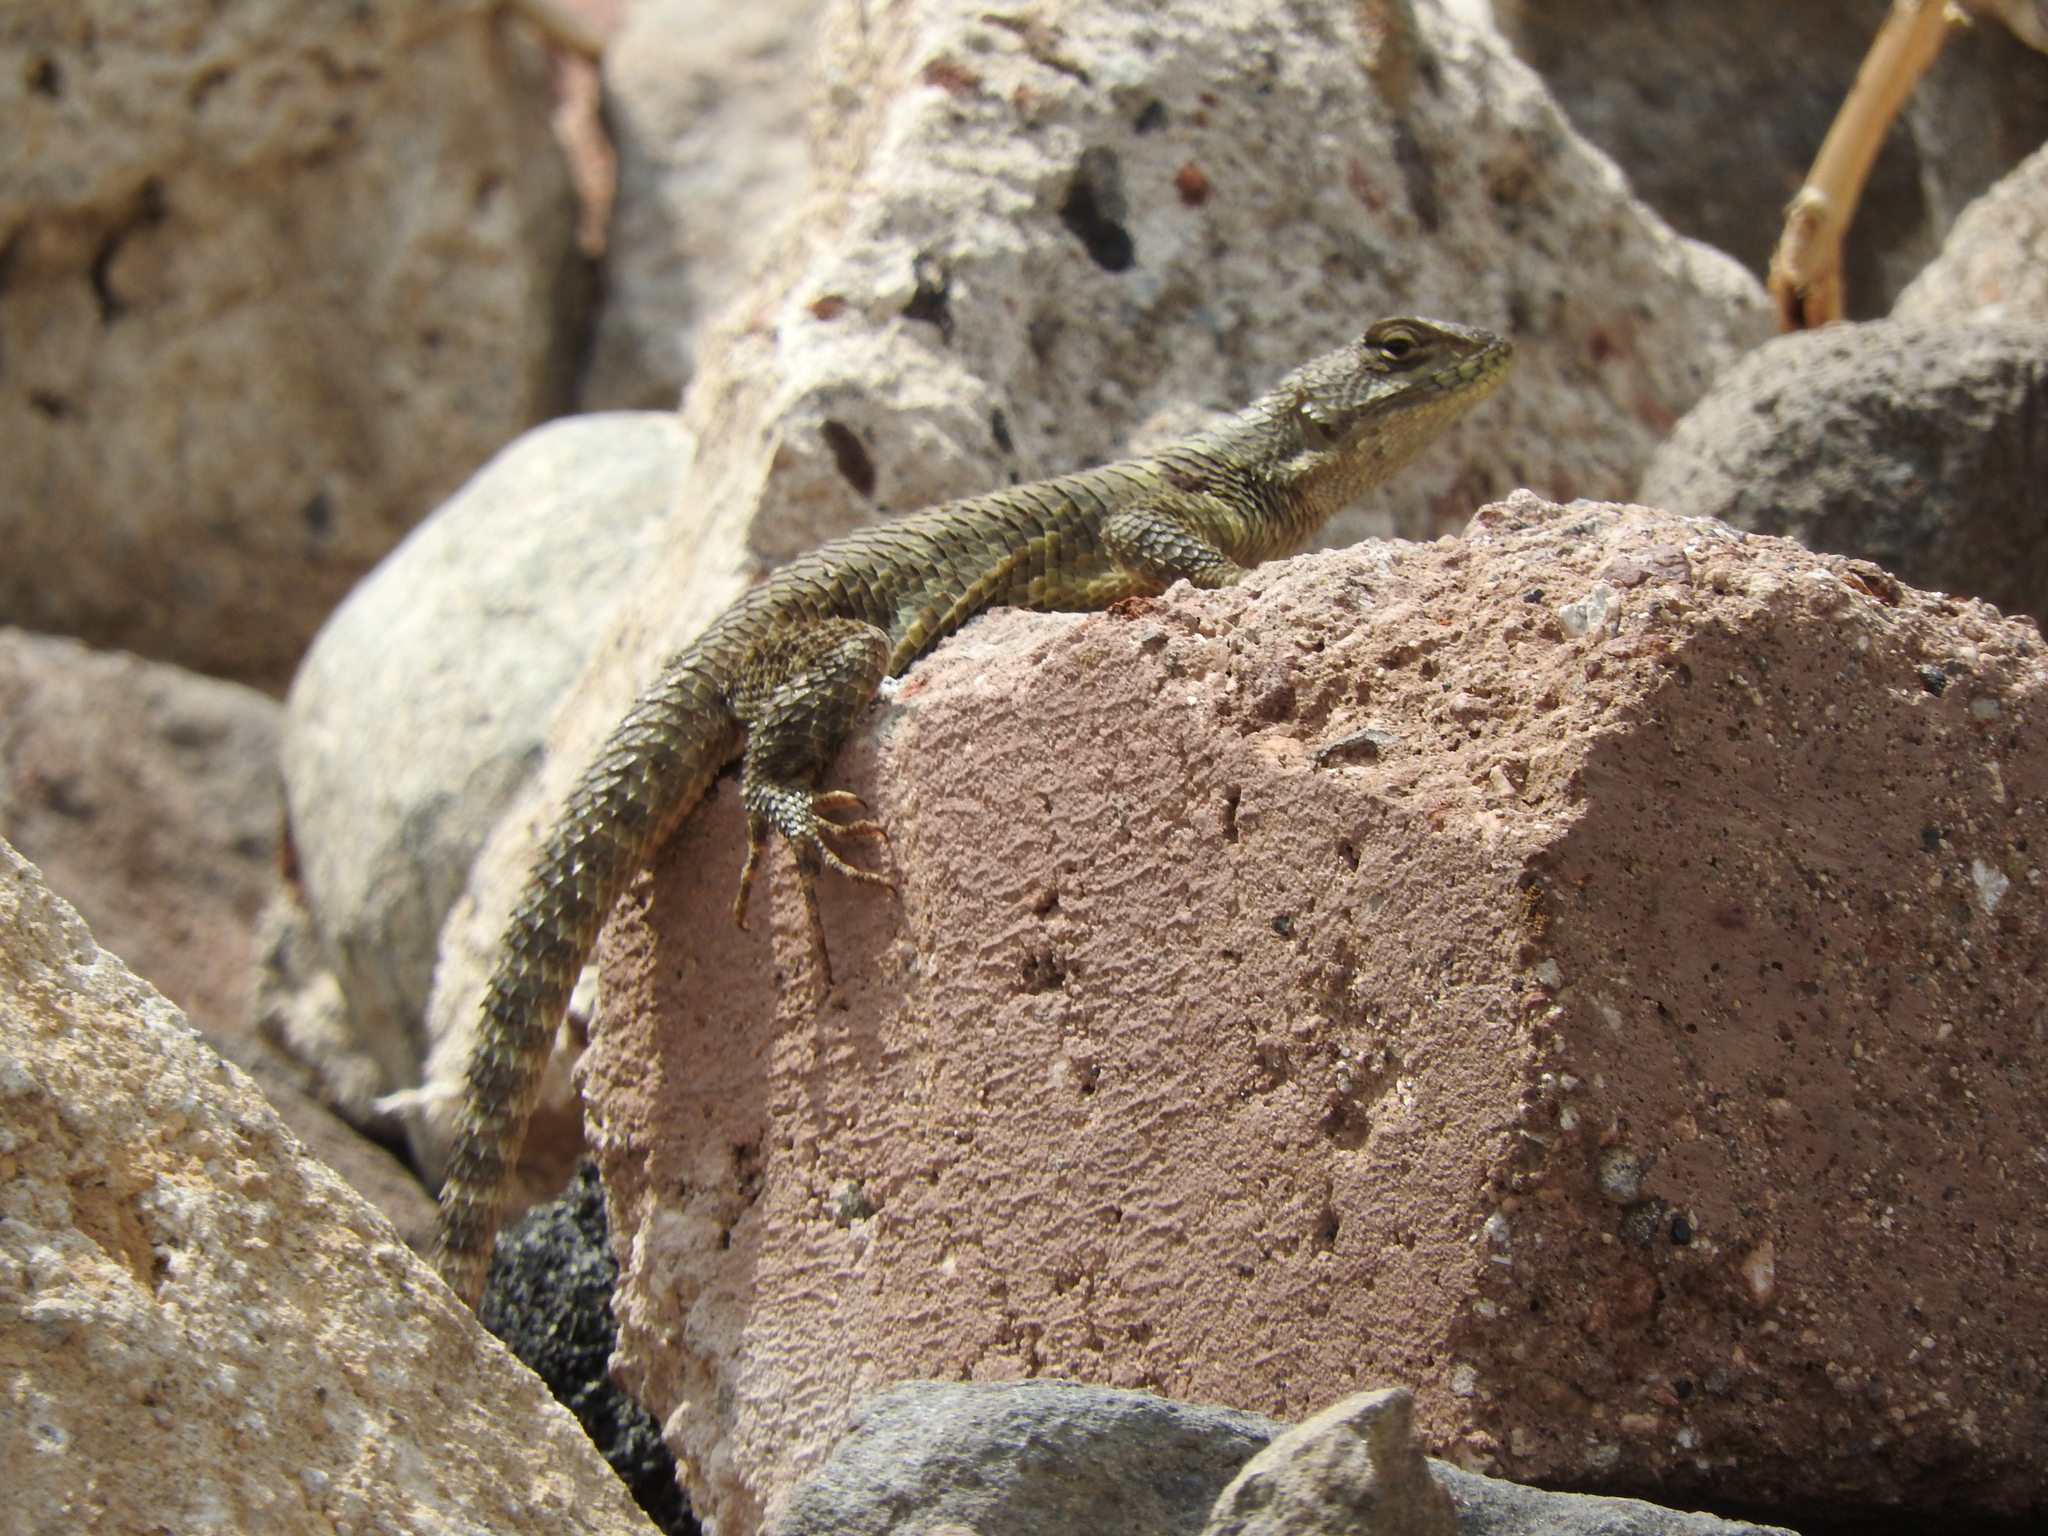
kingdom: Animalia
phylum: Chordata
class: Squamata
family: Phrynosomatidae
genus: Sceloporus
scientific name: Sceloporus torquatus
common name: Central plateau torquate lizard [melanogaster]
